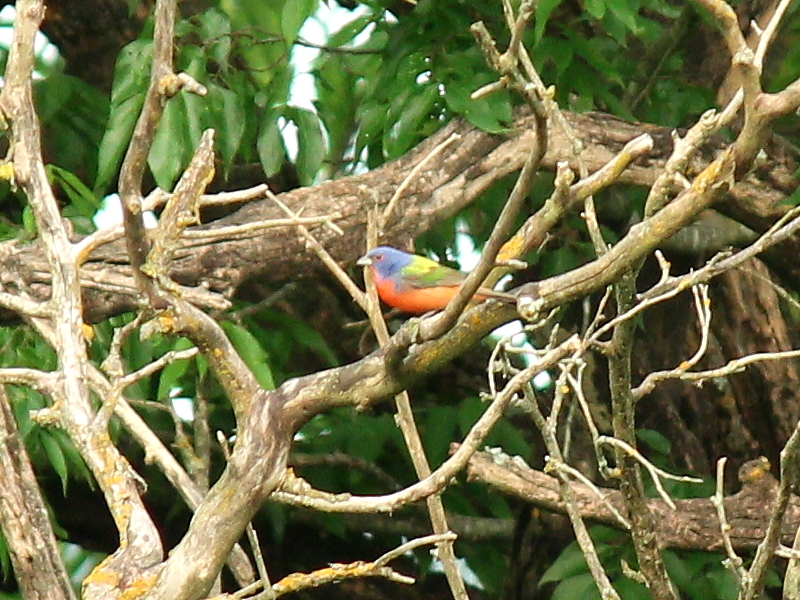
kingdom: Animalia
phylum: Chordata
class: Aves
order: Passeriformes
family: Cardinalidae
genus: Passerina
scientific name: Passerina ciris
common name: Painted bunting
